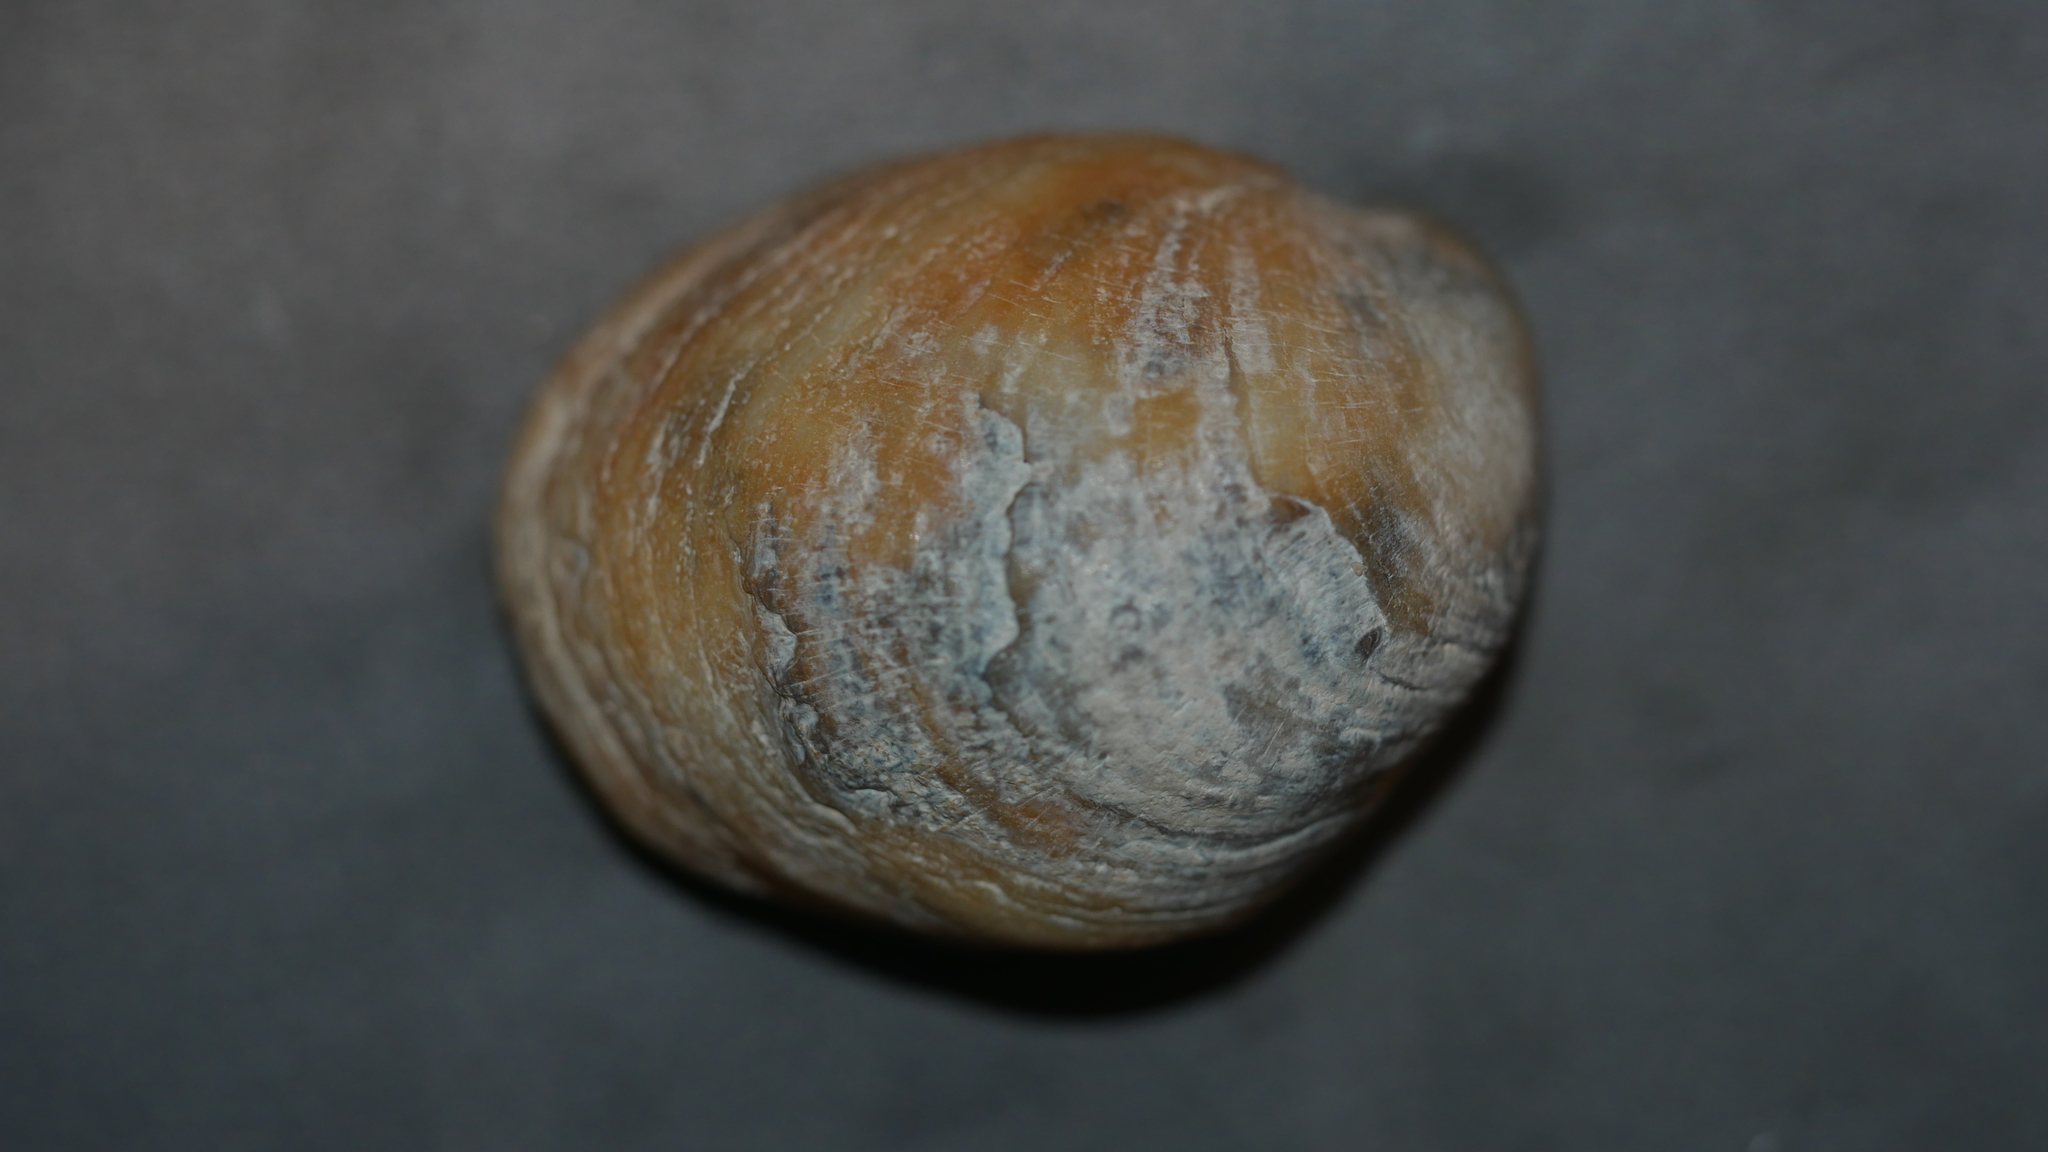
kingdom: Animalia
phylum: Mollusca
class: Gastropoda
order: Littorinimorpha
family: Calyptraeidae
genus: Crepidula
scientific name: Crepidula fornicata
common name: Slipper limpet
